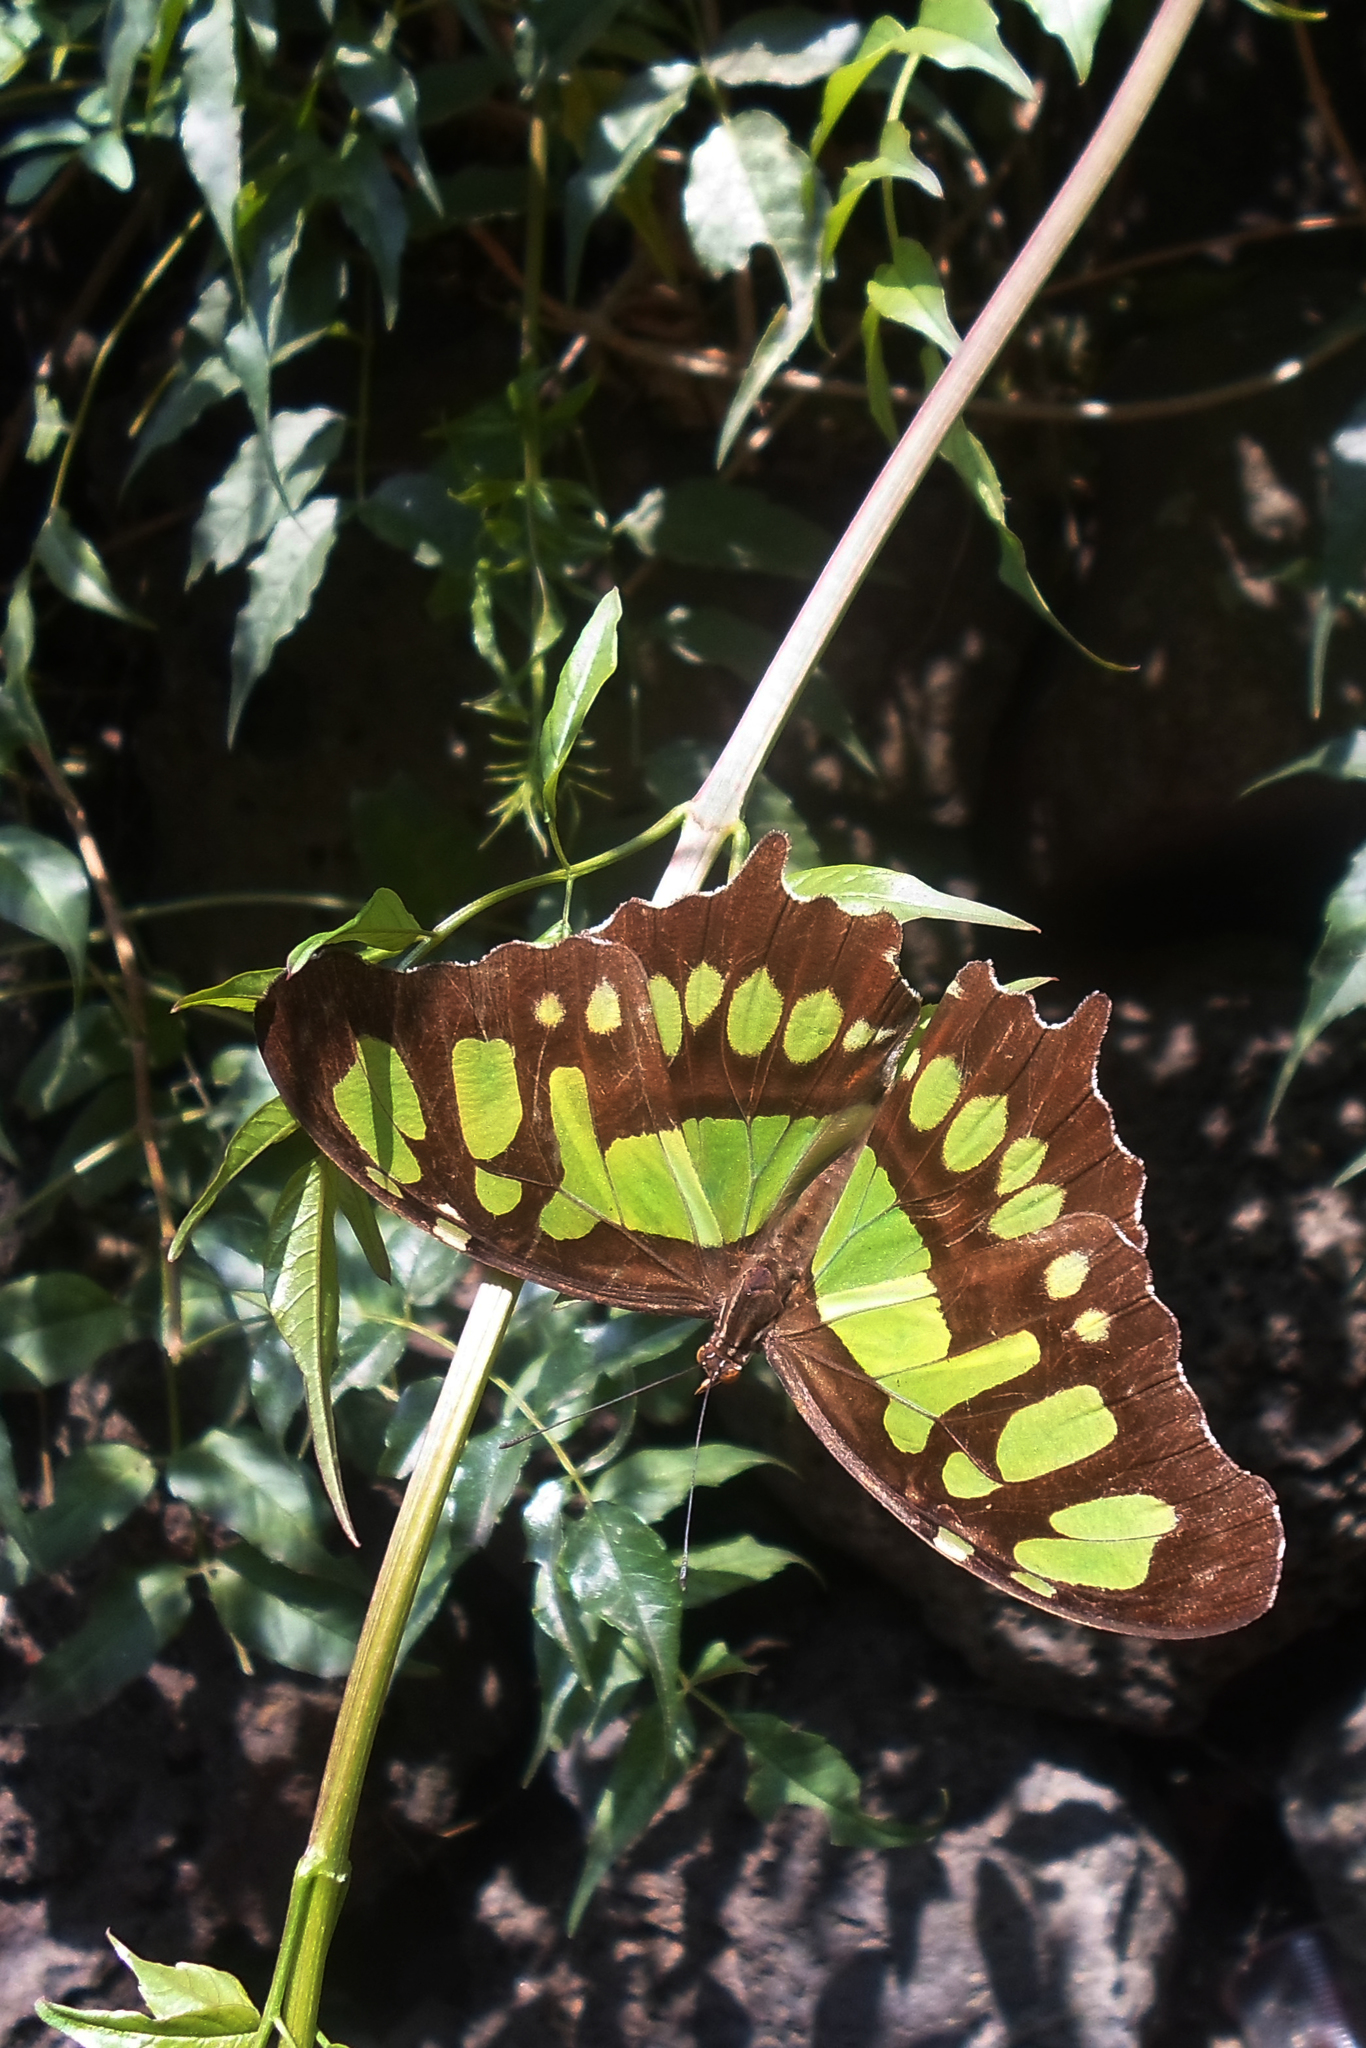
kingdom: Animalia
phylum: Arthropoda
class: Insecta
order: Lepidoptera
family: Nymphalidae
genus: Siproeta
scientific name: Siproeta stelenes
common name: Malachite
